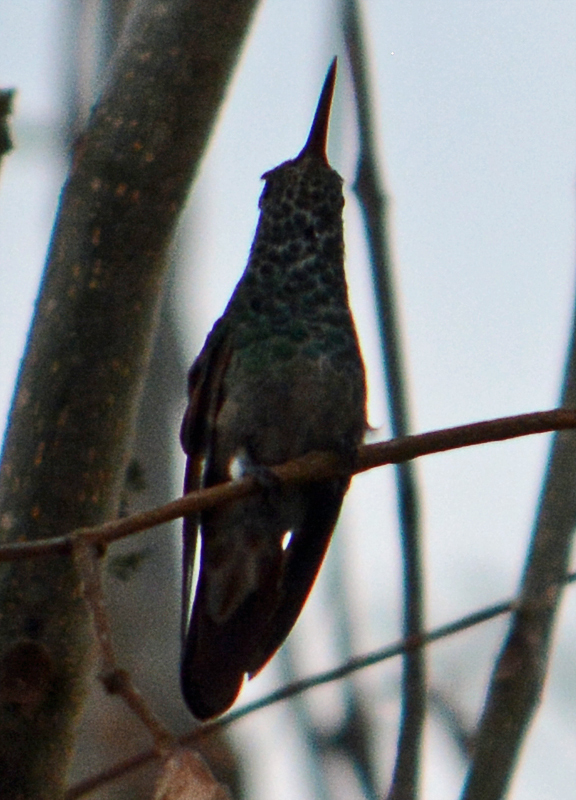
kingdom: Animalia
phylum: Chordata
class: Aves
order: Apodiformes
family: Trochilidae
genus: Saucerottia
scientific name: Saucerottia beryllina
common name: Berylline hummingbird
